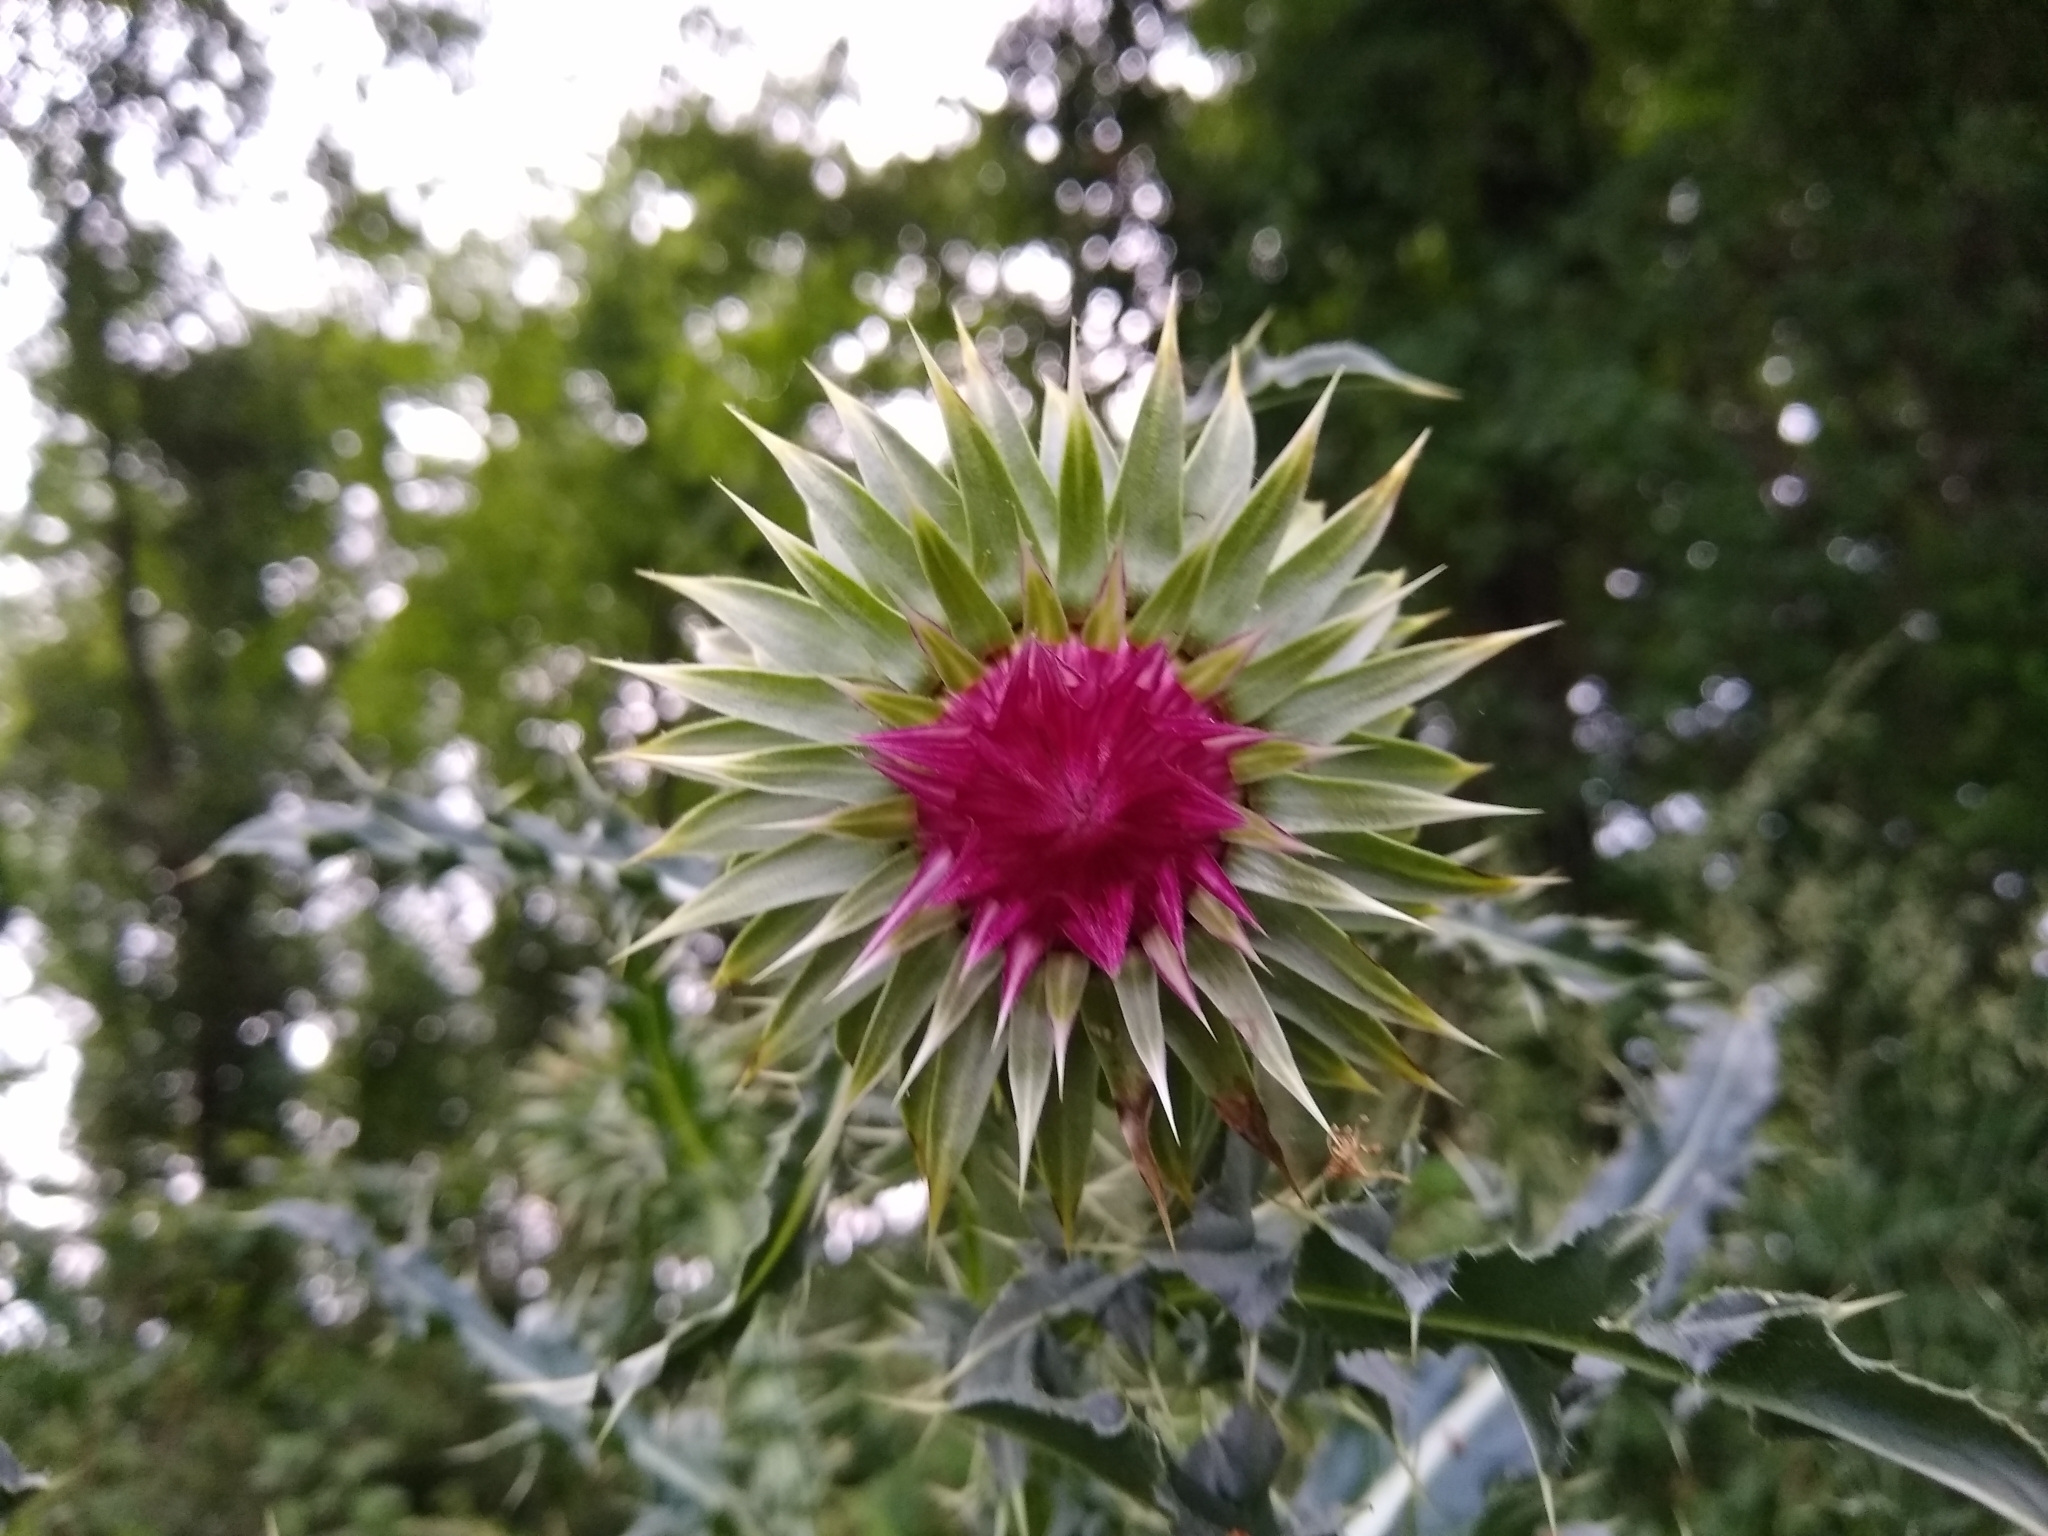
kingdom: Plantae
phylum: Tracheophyta
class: Magnoliopsida
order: Asterales
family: Asteraceae
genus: Carduus
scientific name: Carduus nutans
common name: Musk thistle
